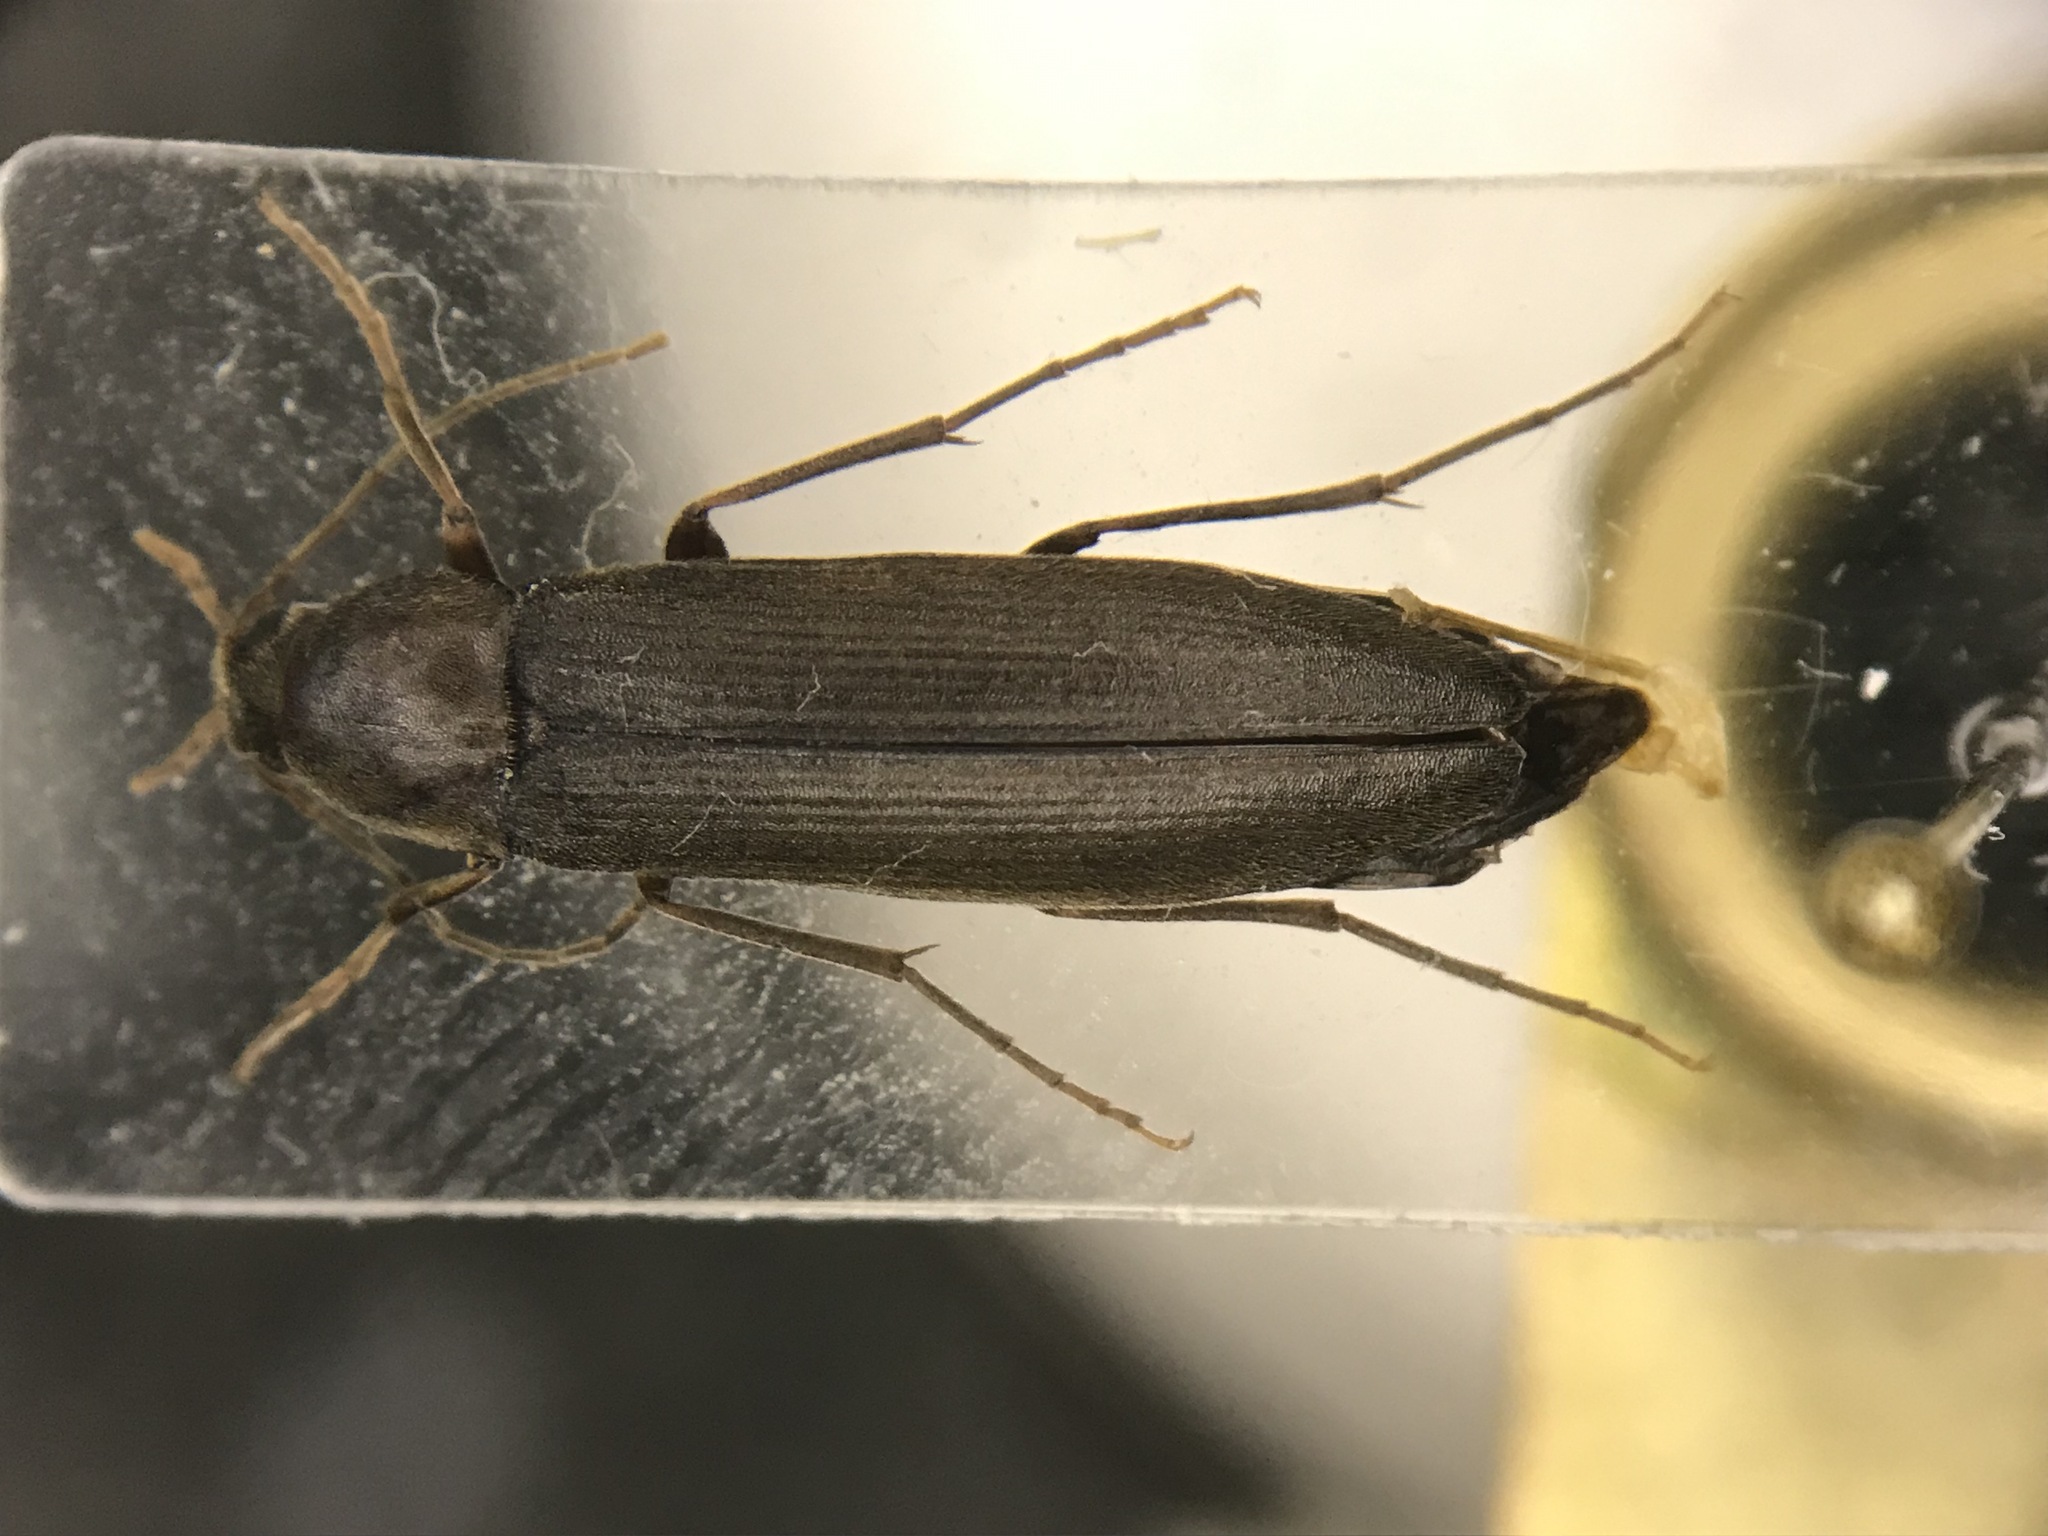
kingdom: Animalia
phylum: Arthropoda
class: Insecta
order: Coleoptera
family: Melandryidae
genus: Serropalpus
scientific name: Serropalpus coxalis
